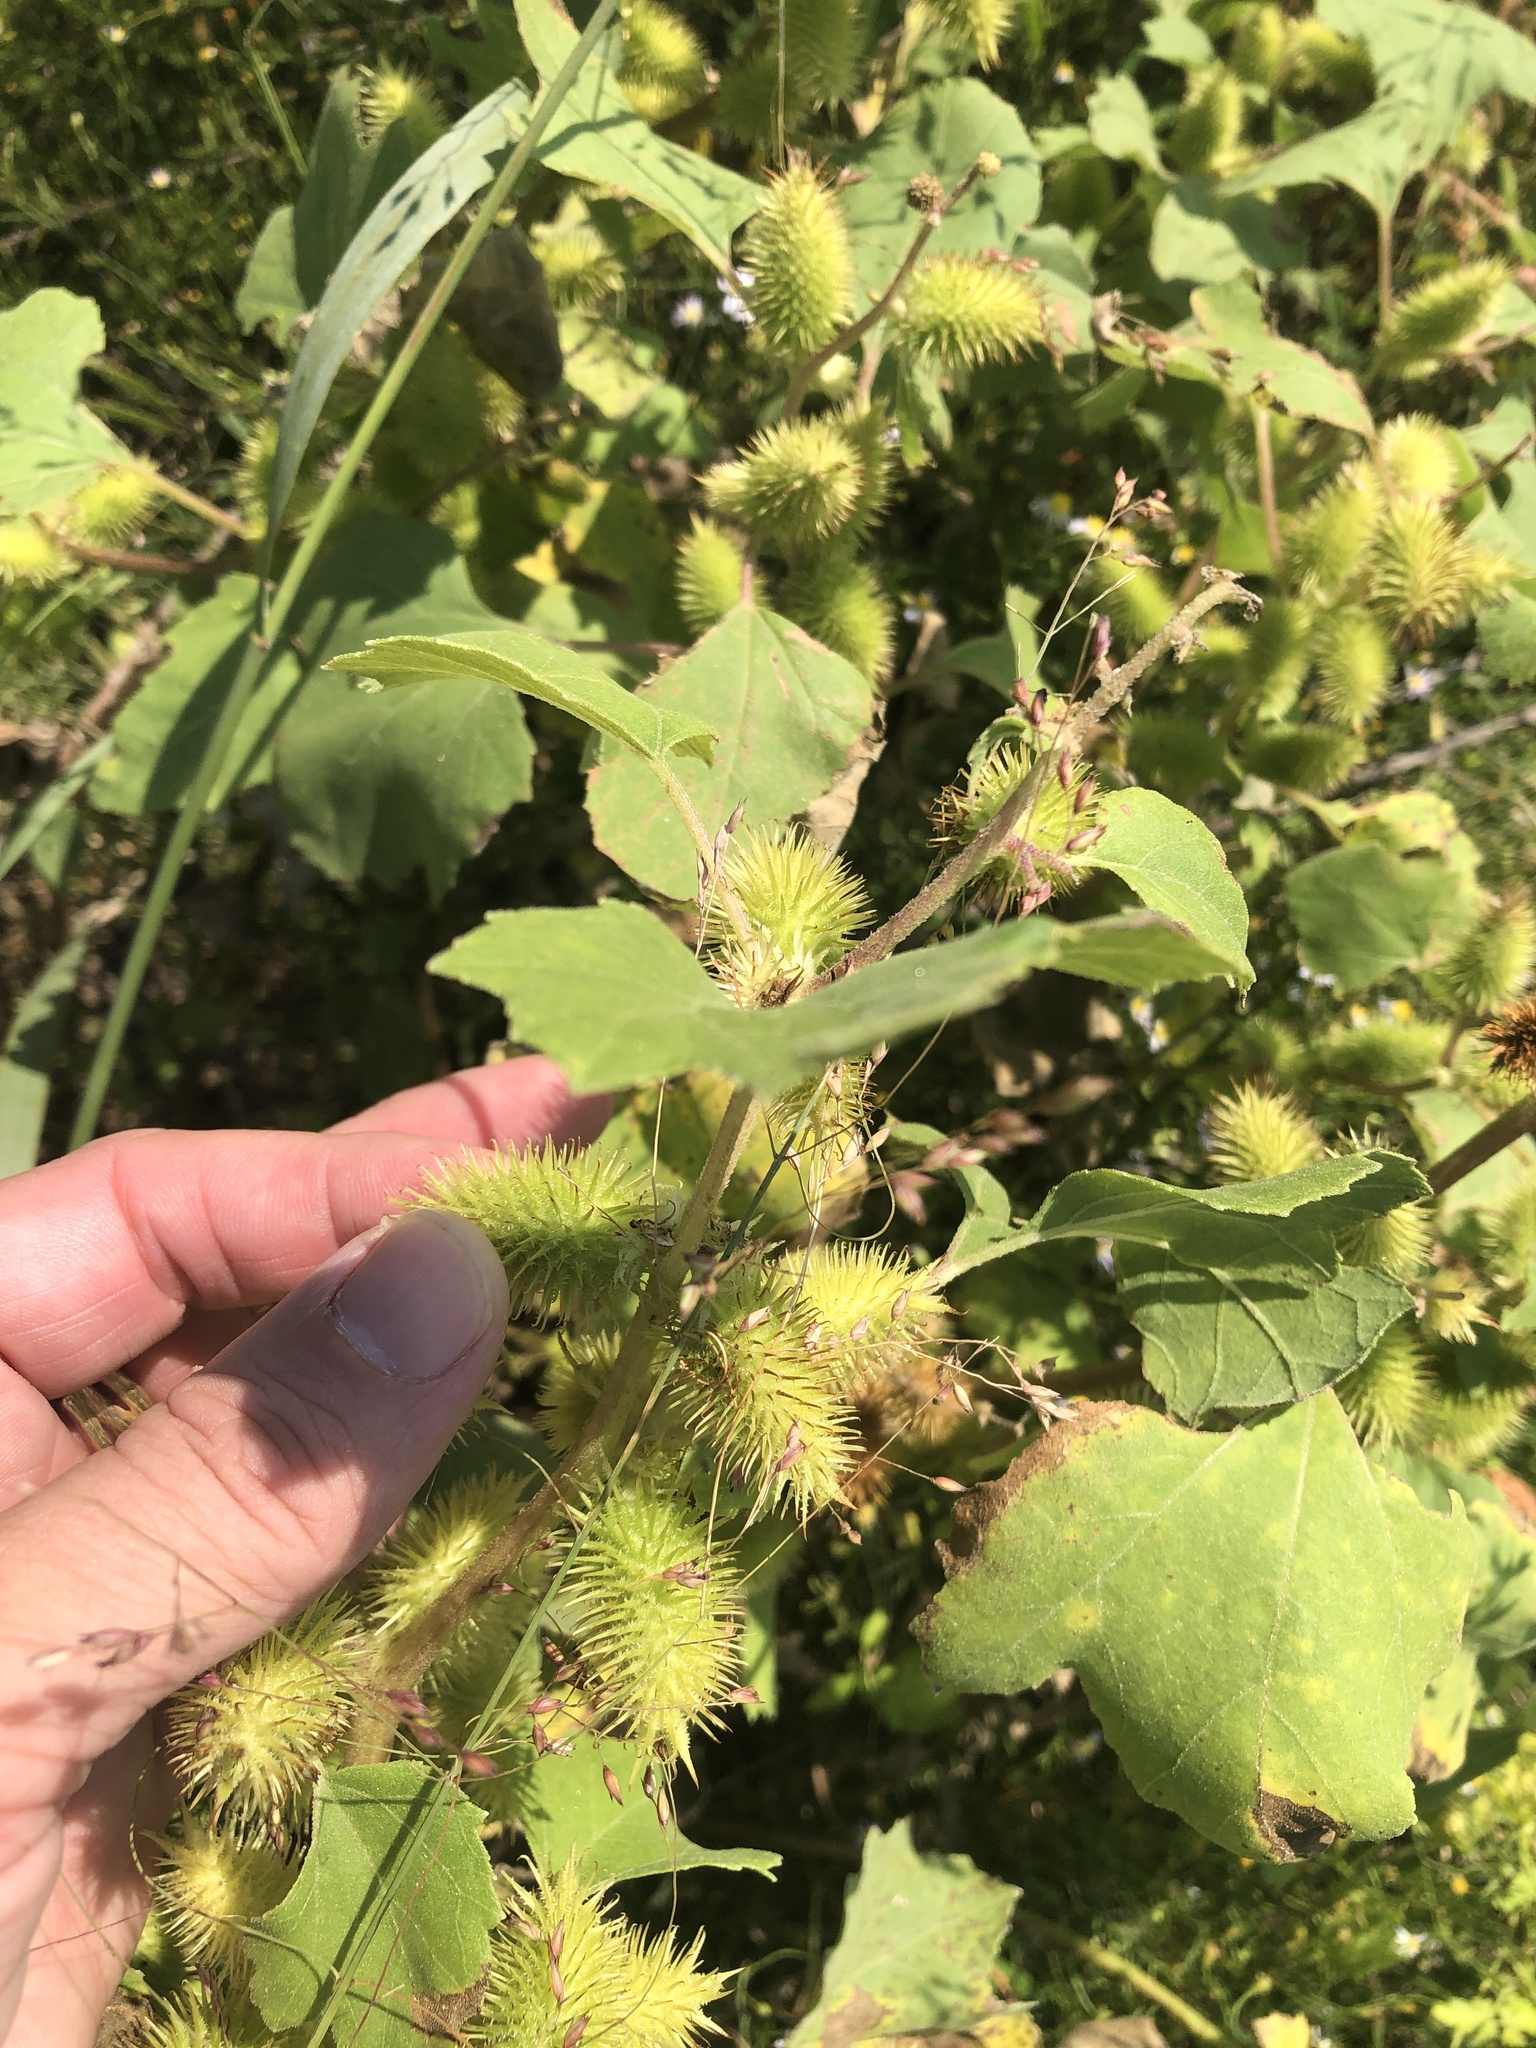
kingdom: Plantae
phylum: Tracheophyta
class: Magnoliopsida
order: Asterales
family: Asteraceae
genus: Xanthium
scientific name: Xanthium strumarium
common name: Rough cocklebur
